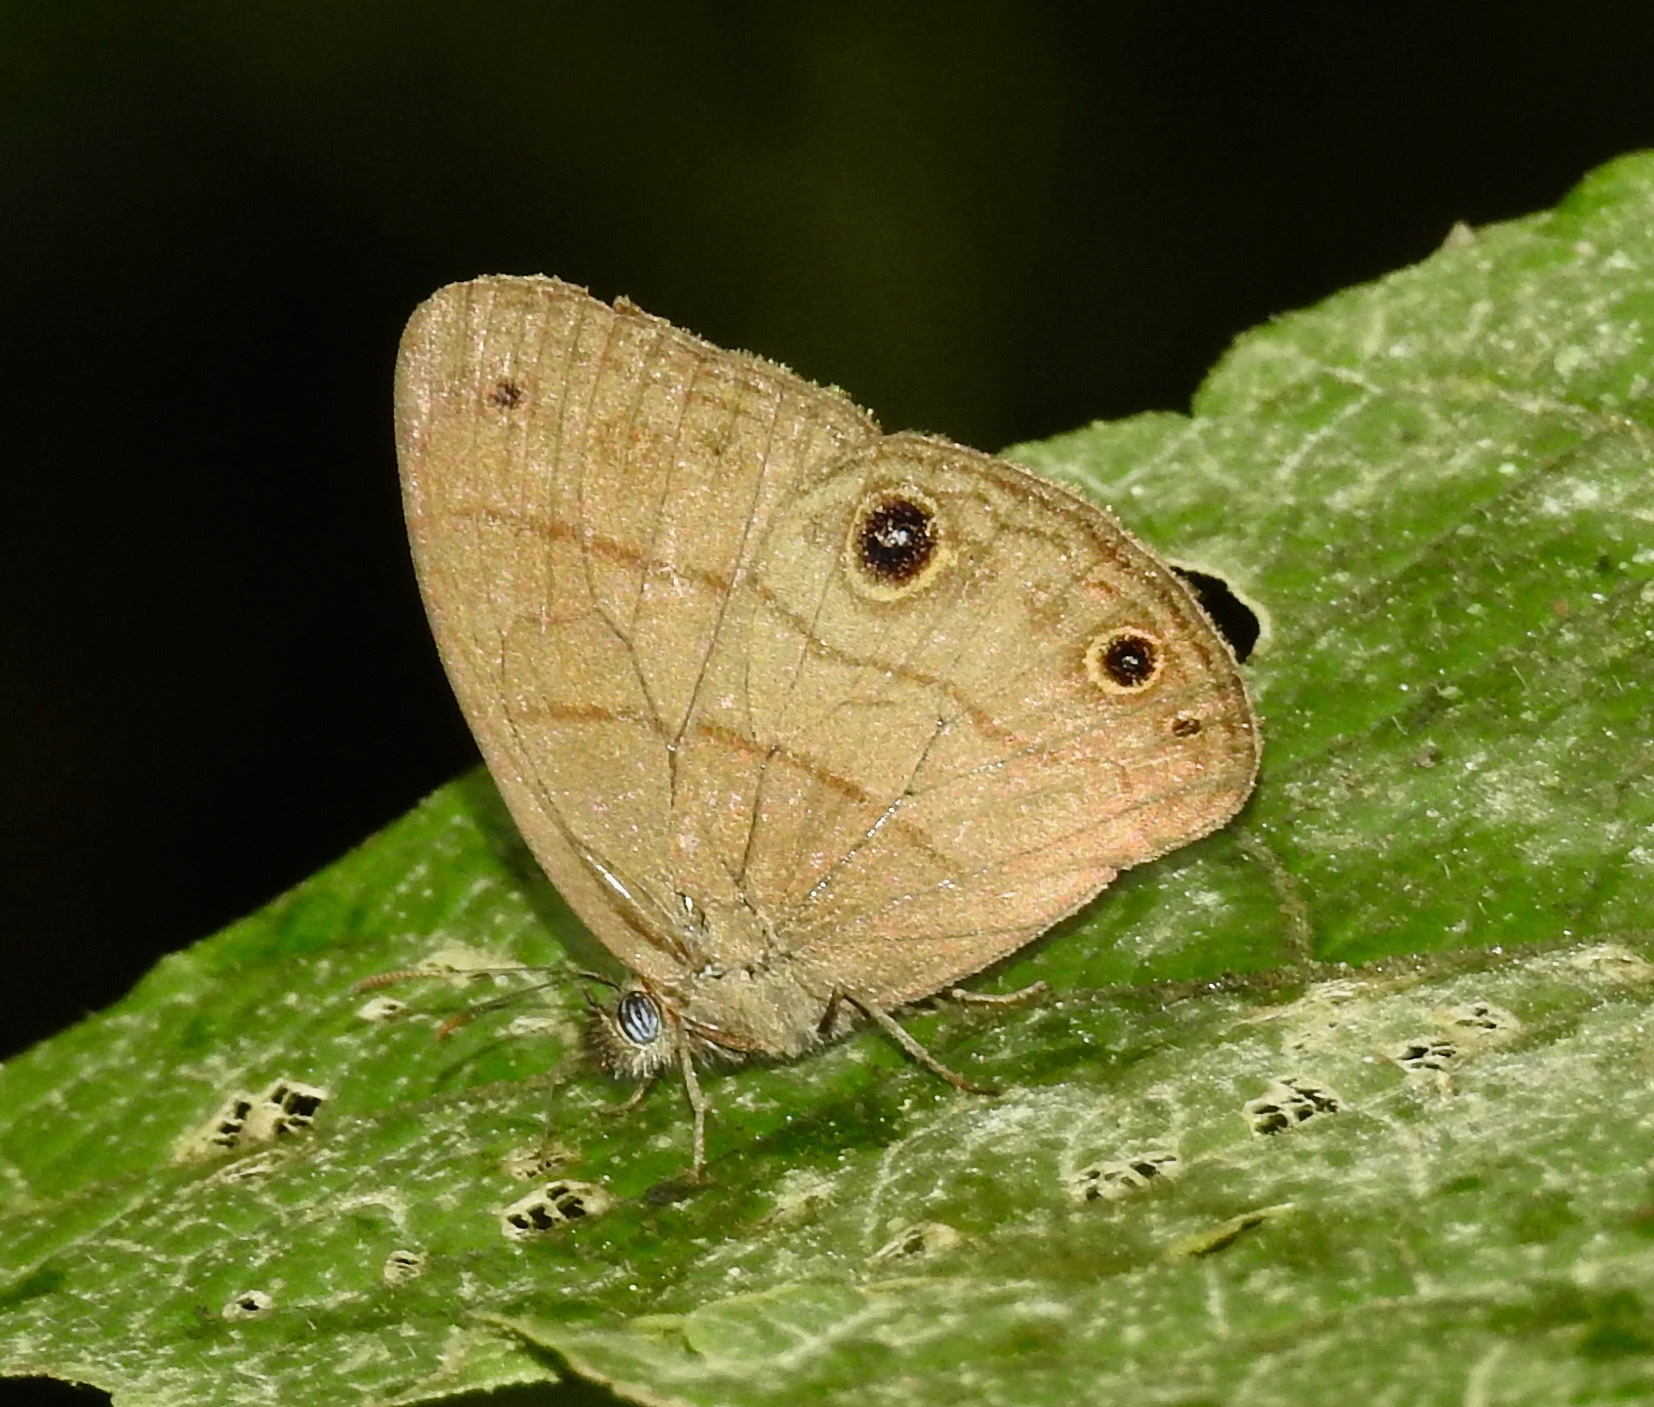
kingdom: Animalia
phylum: Arthropoda
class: Insecta
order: Lepidoptera
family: Nymphalidae
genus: Hermeuptychia
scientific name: Hermeuptychia harmonia
